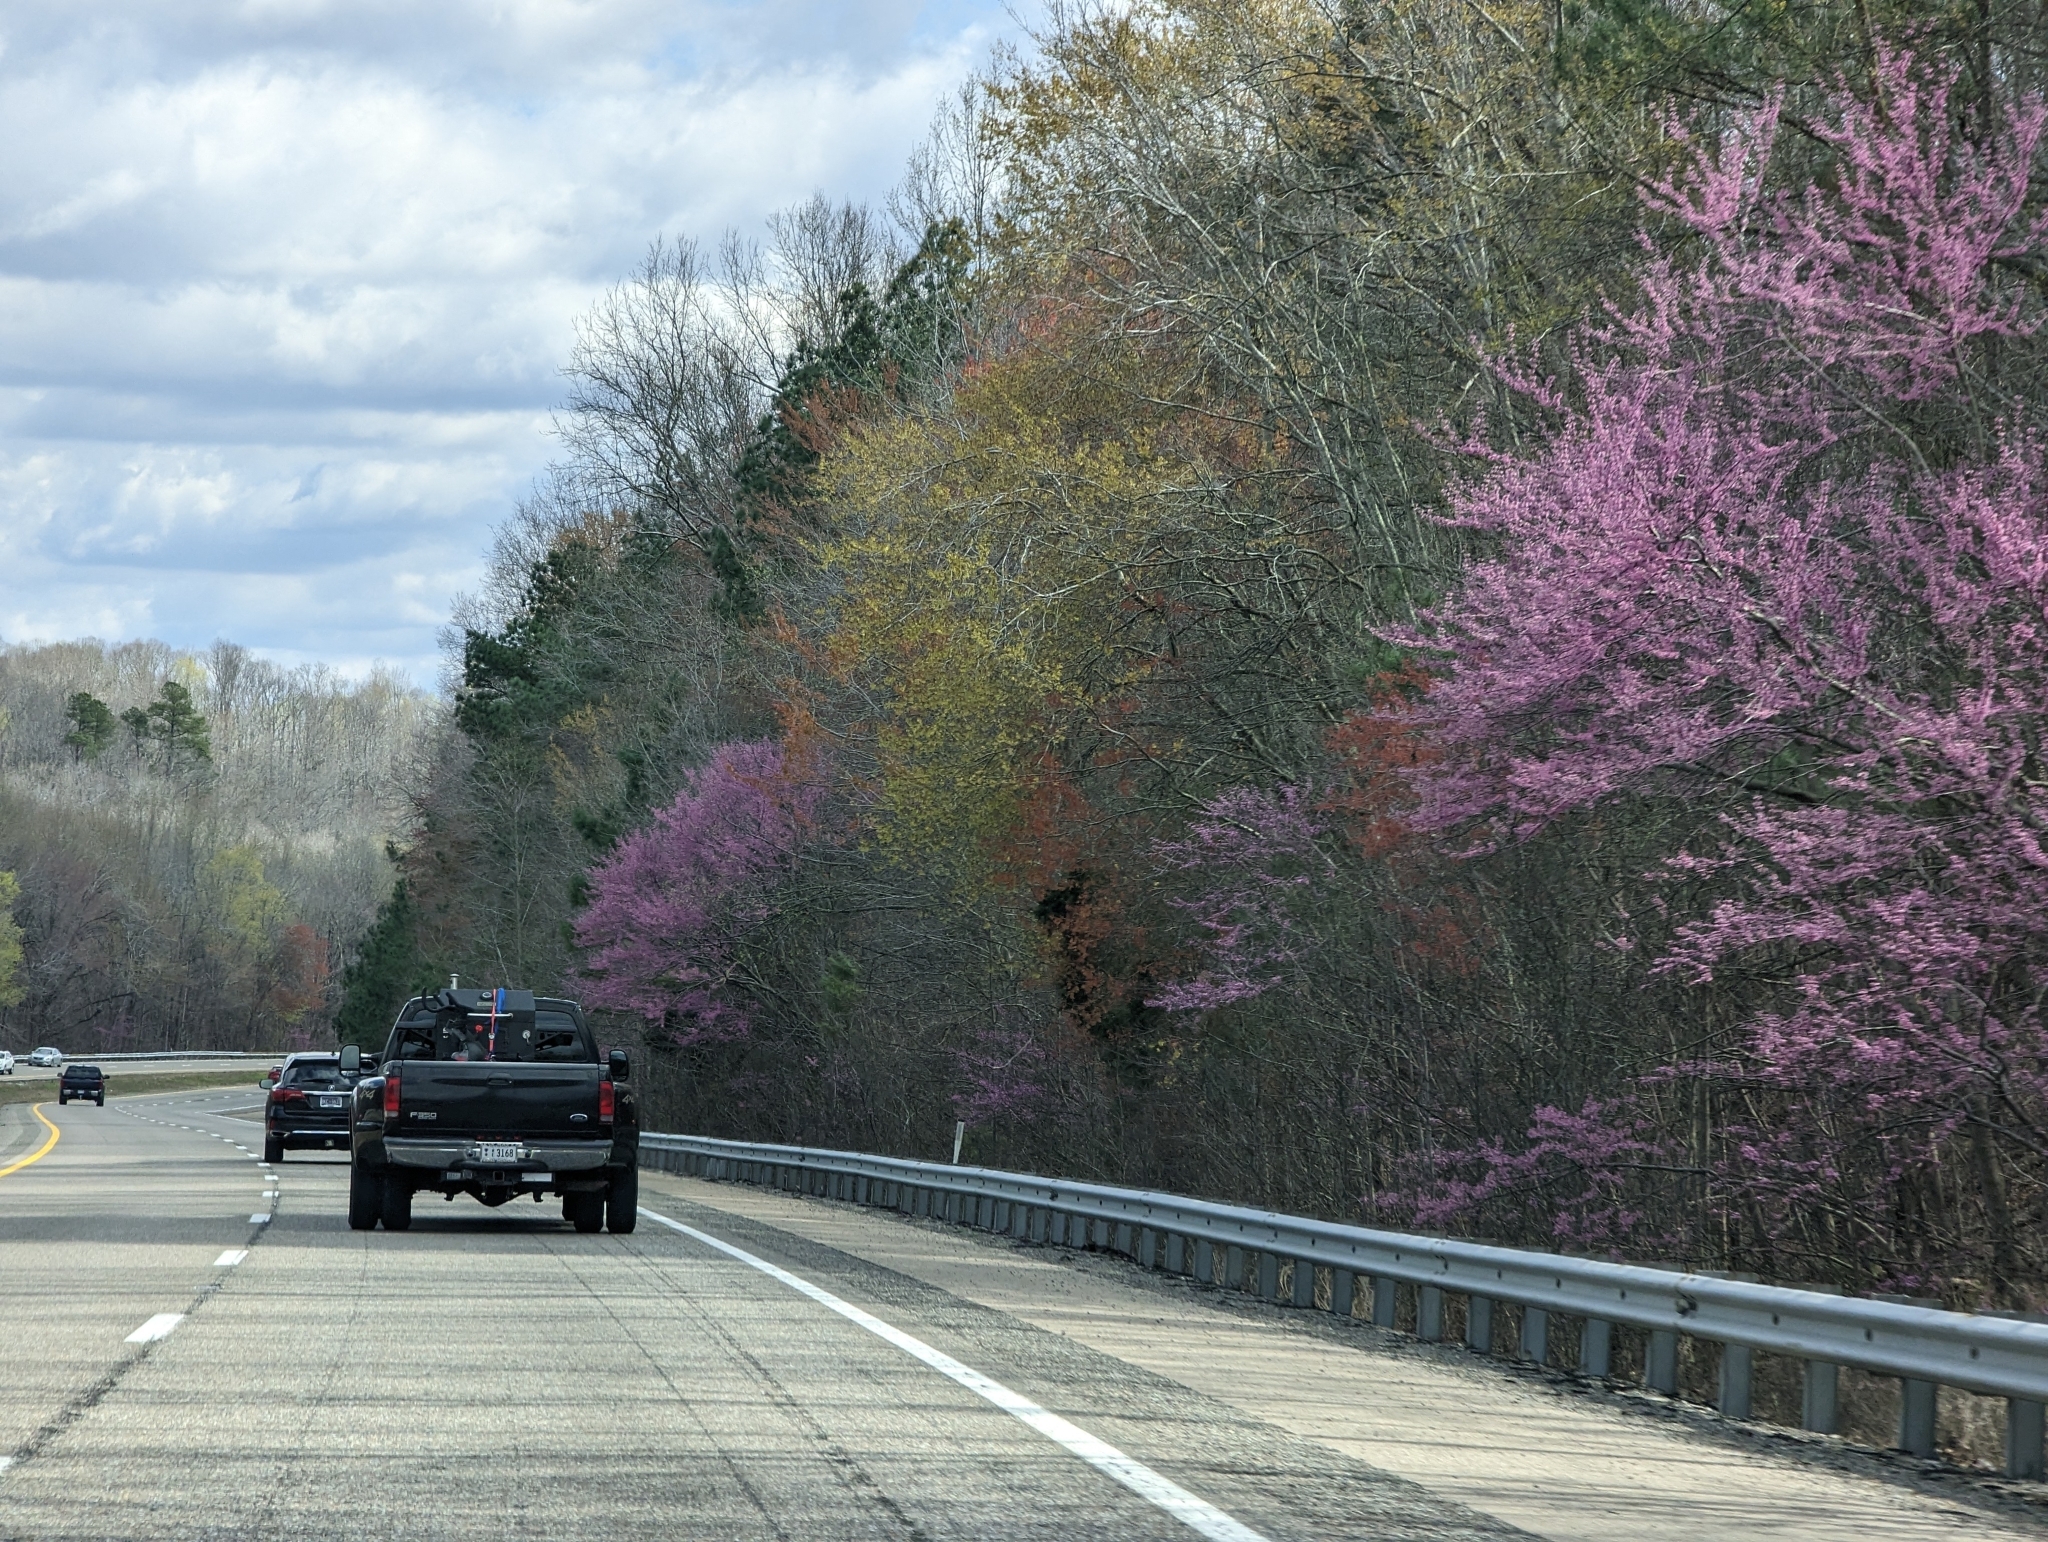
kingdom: Plantae
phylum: Tracheophyta
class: Magnoliopsida
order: Fabales
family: Fabaceae
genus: Cercis
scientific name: Cercis canadensis
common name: Eastern redbud
